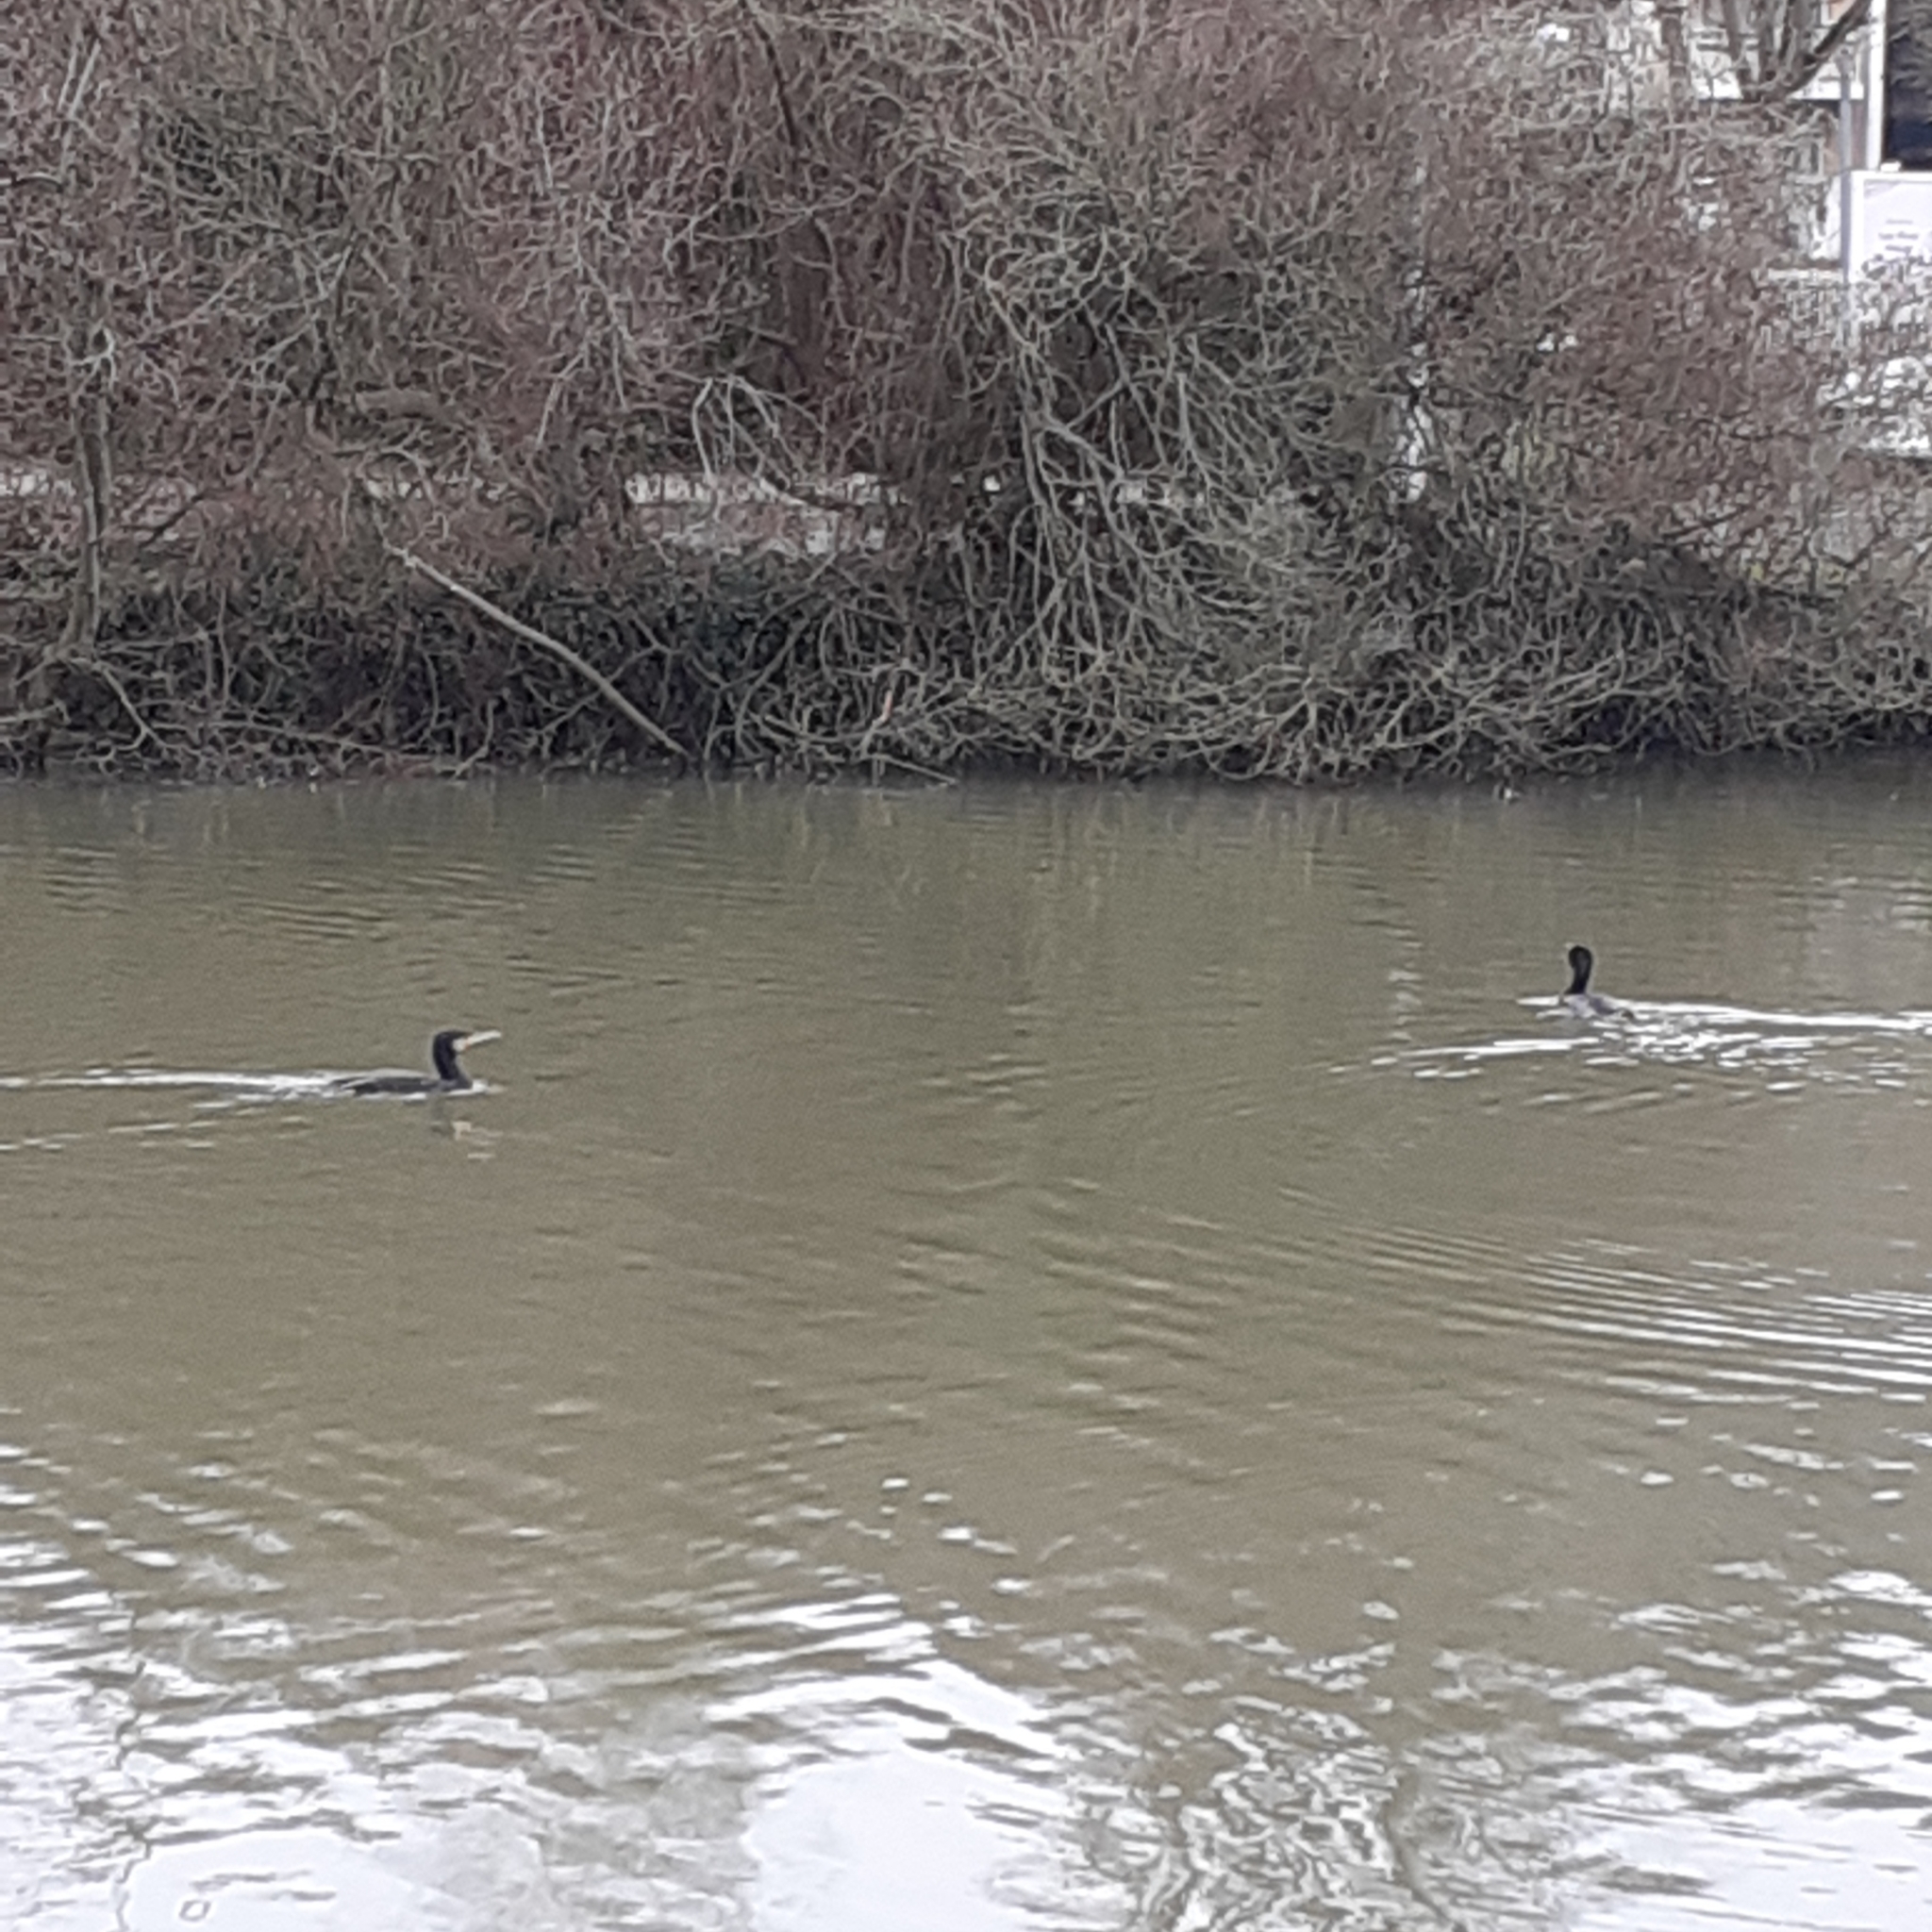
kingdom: Animalia
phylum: Chordata
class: Aves
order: Suliformes
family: Phalacrocoracidae
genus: Phalacrocorax
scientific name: Phalacrocorax carbo
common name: Great cormorant
